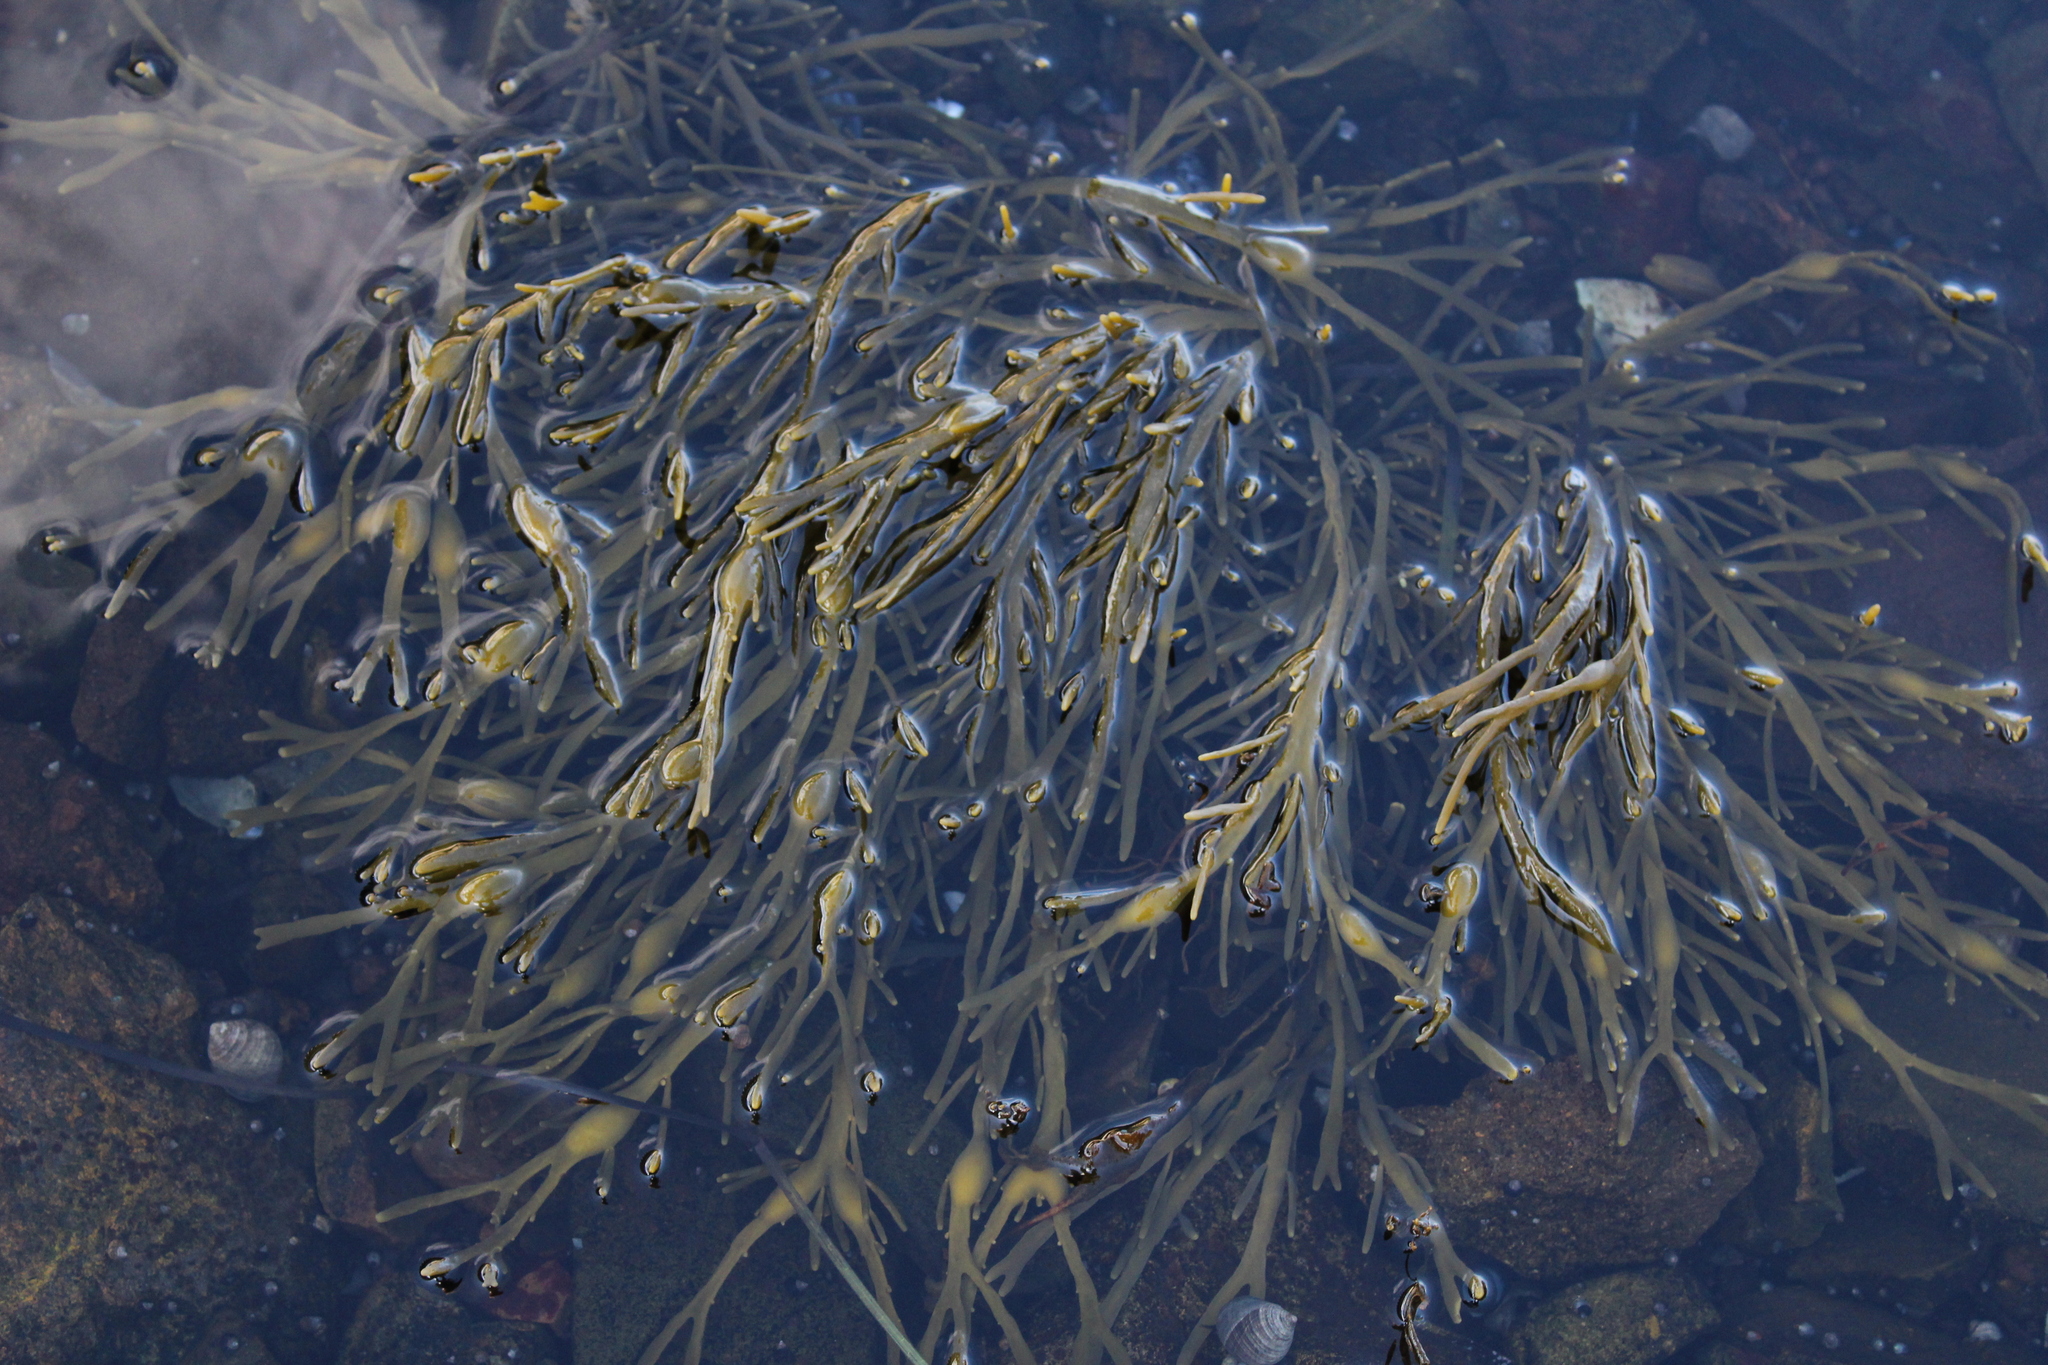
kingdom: Chromista
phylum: Ochrophyta
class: Phaeophyceae
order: Fucales
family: Fucaceae
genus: Ascophyllum
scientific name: Ascophyllum nodosum
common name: Knotted wrack
